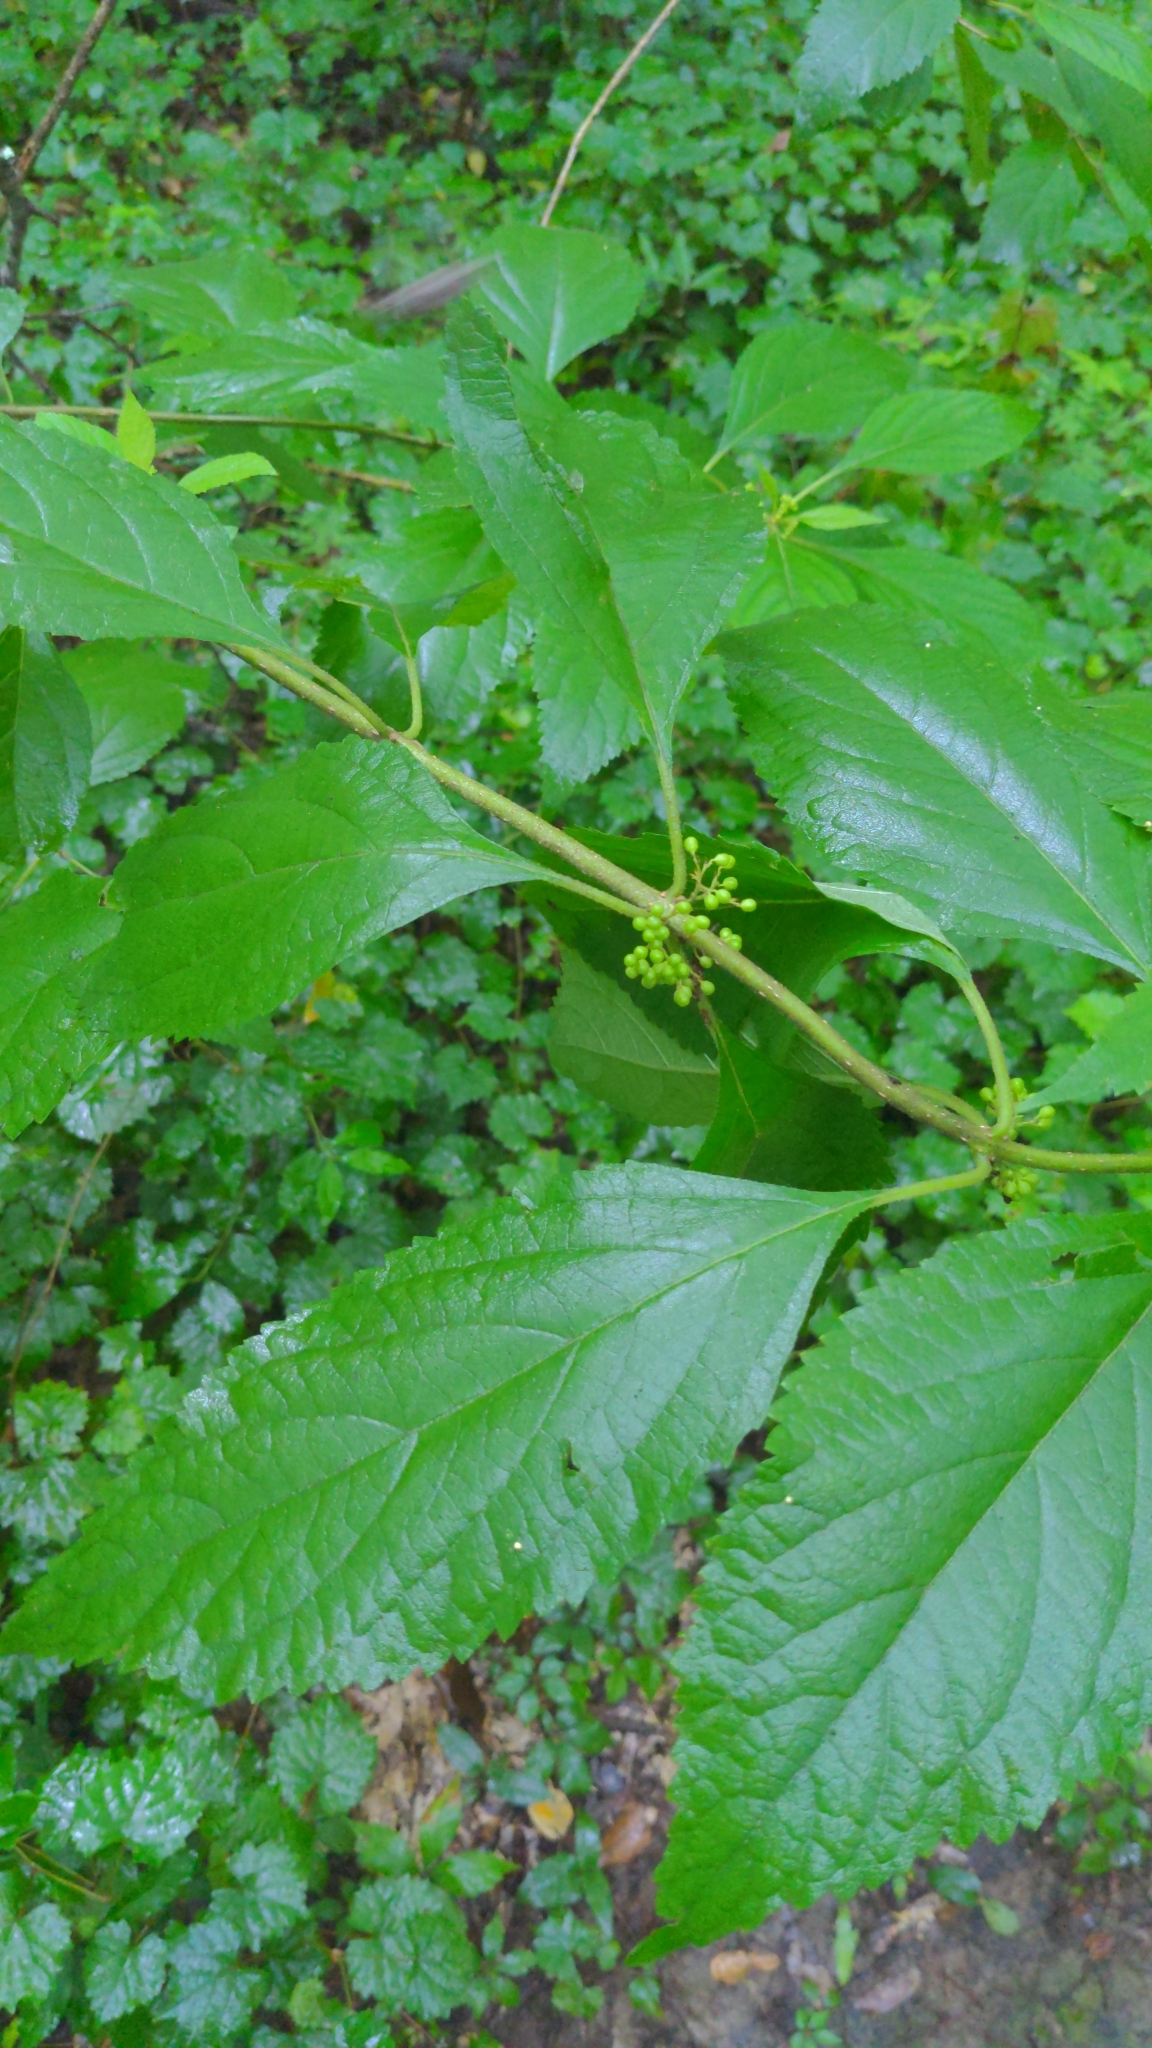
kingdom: Plantae
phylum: Tracheophyta
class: Magnoliopsida
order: Lamiales
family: Lamiaceae
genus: Callicarpa
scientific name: Callicarpa americana
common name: American beautyberry
